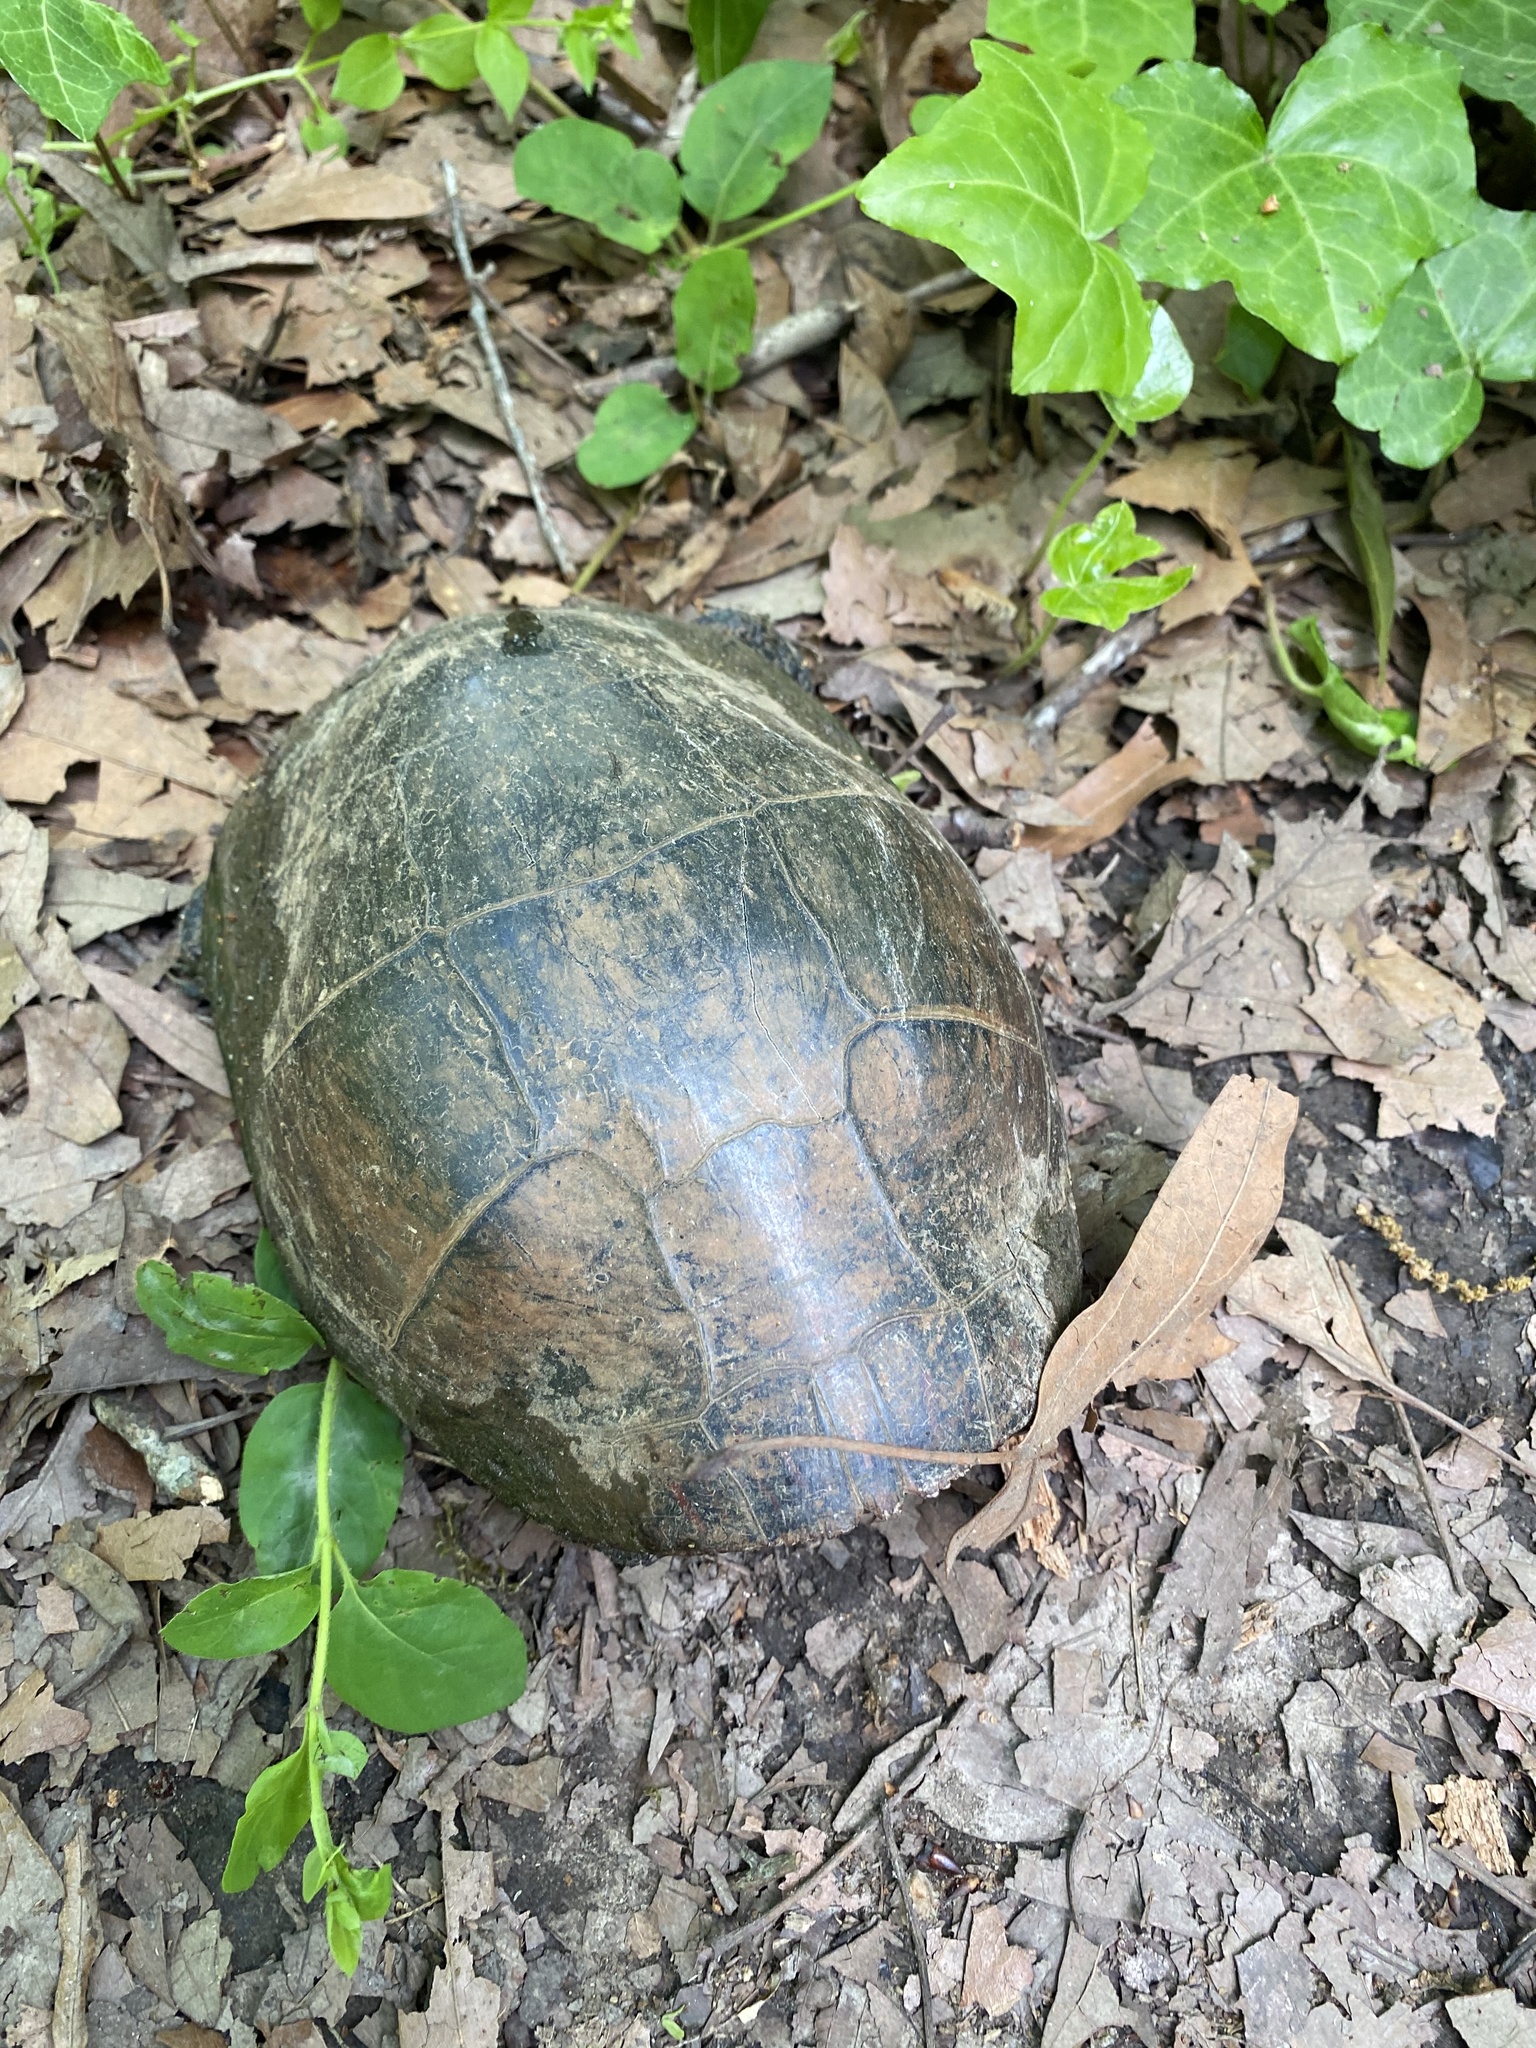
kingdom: Animalia
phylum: Chordata
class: Testudines
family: Emydidae
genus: Chrysemys
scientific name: Chrysemys picta
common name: Painted turtle
